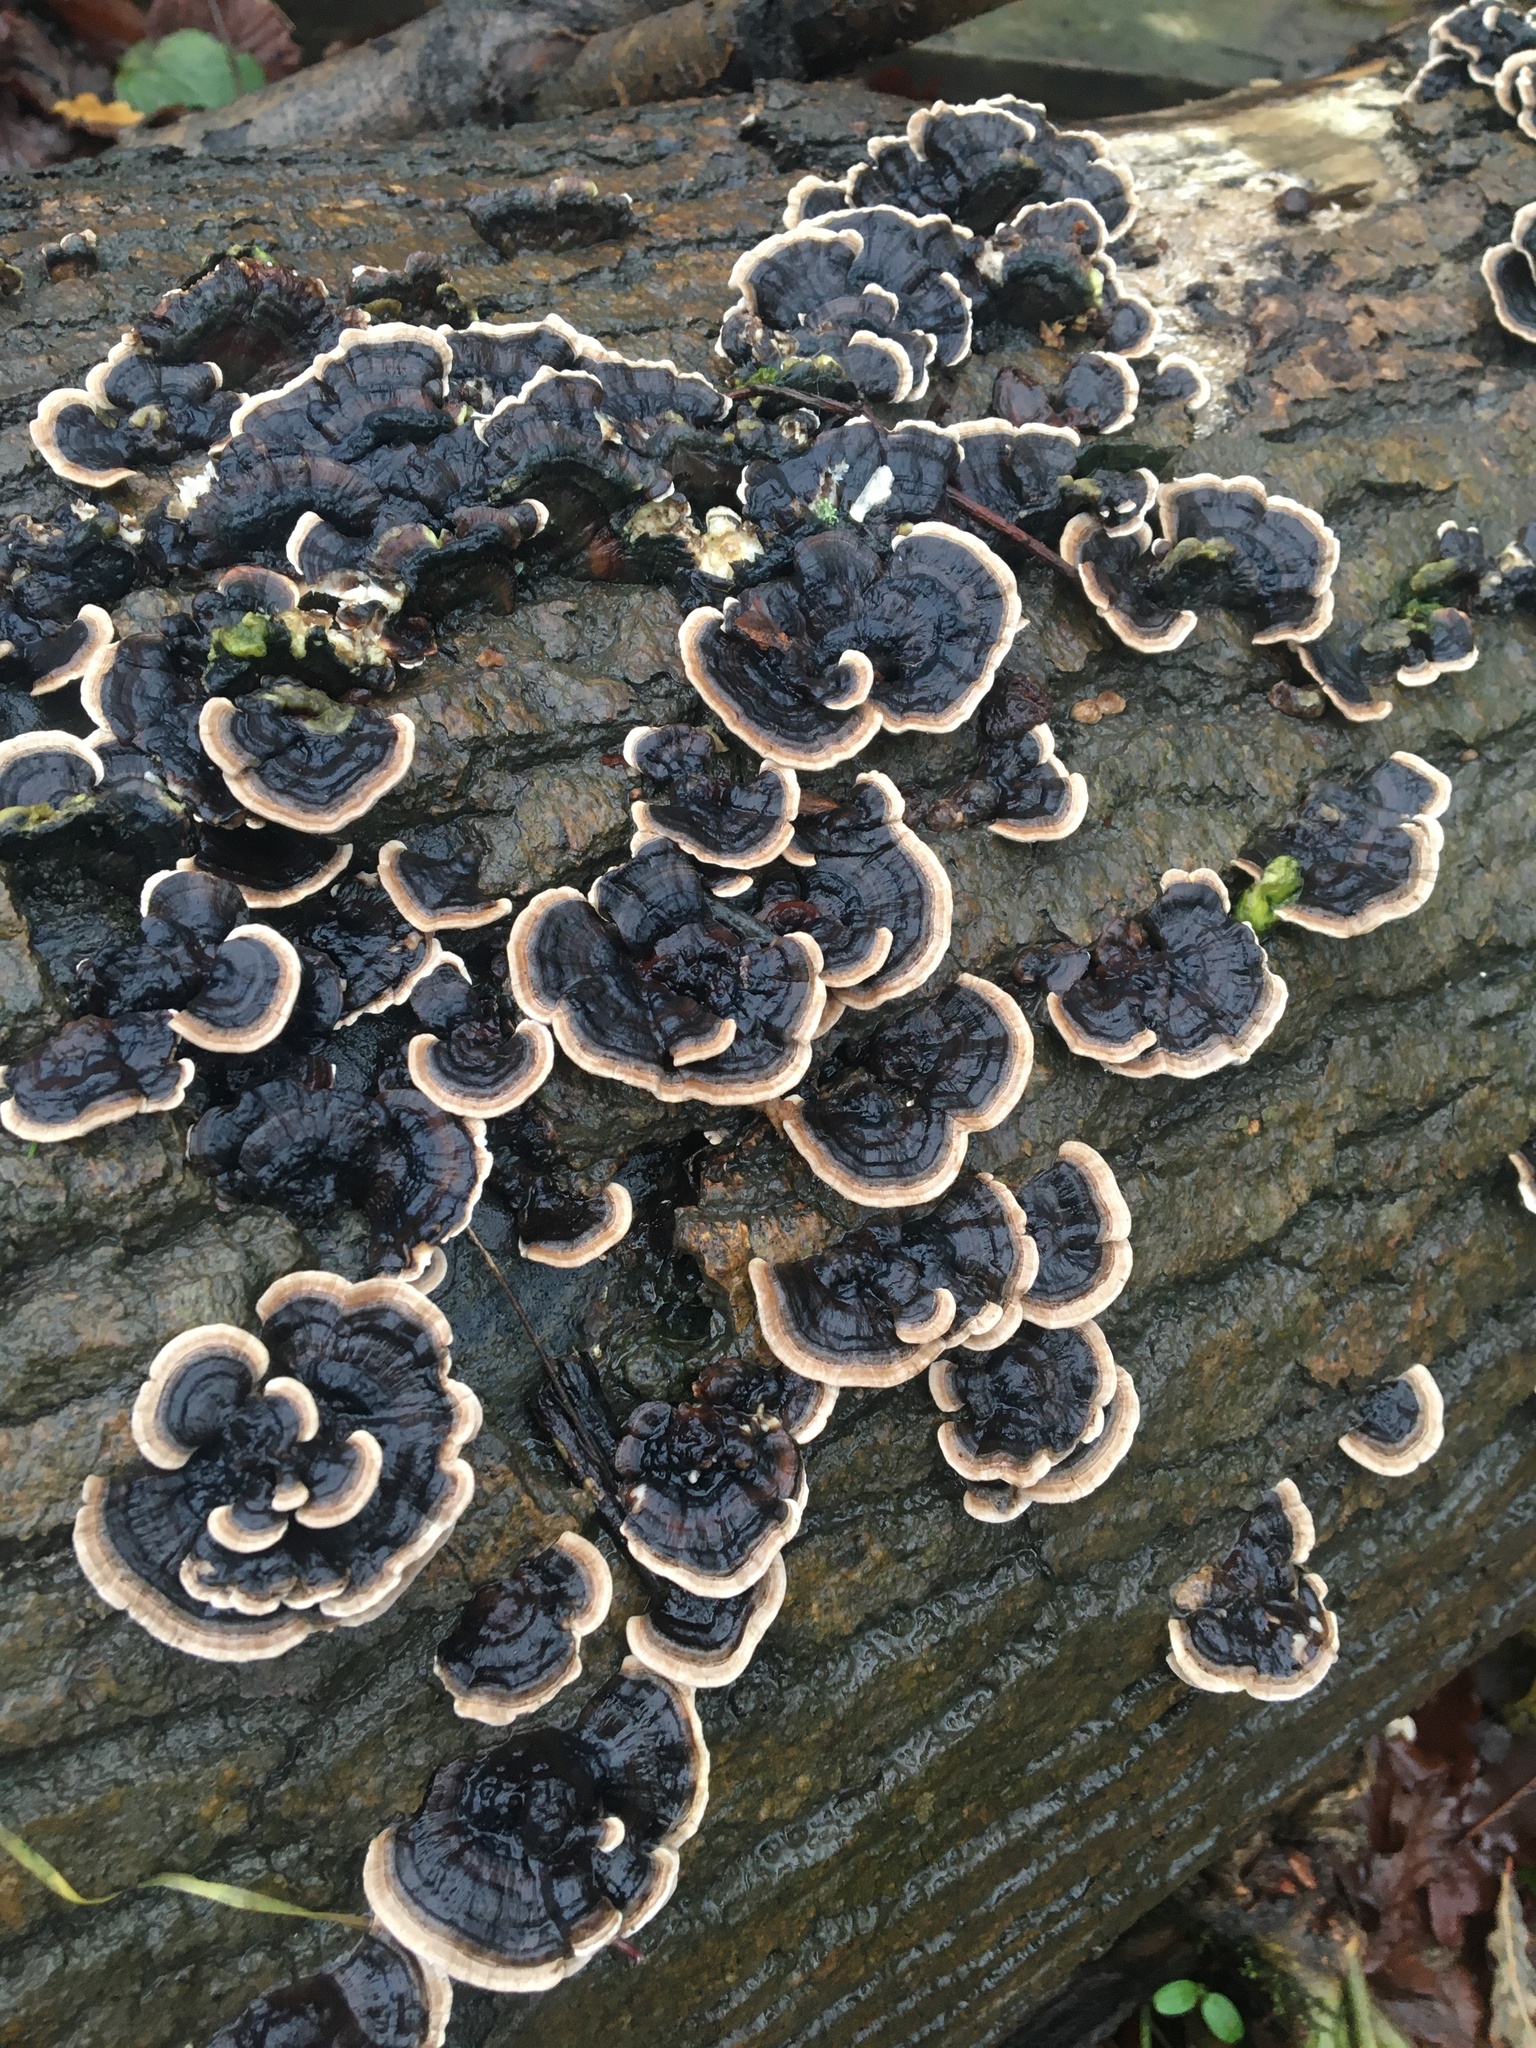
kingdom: Fungi
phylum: Basidiomycota
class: Agaricomycetes
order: Polyporales
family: Polyporaceae
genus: Trametes
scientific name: Trametes versicolor
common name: Turkeytail
